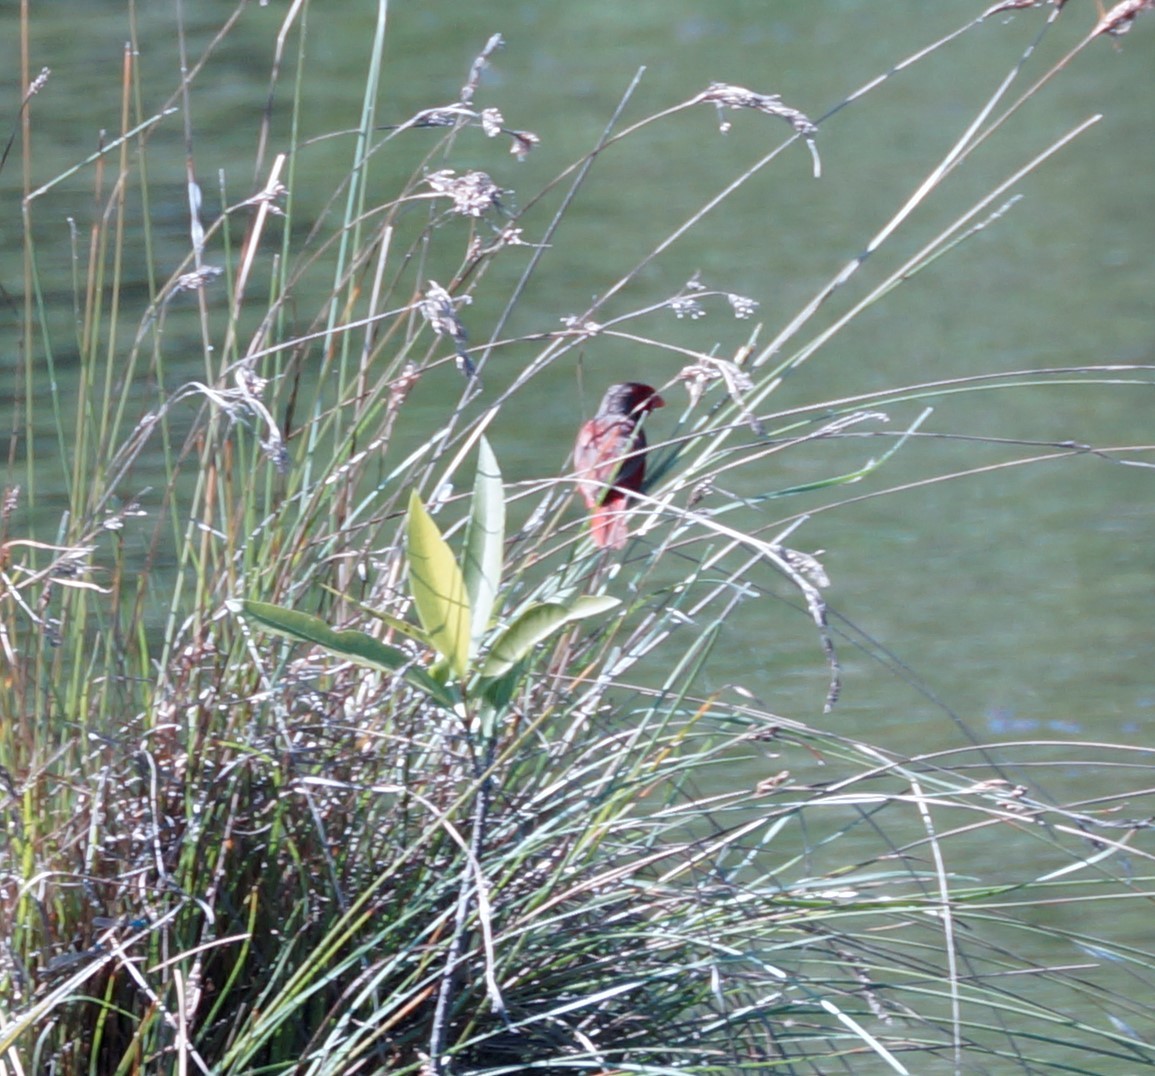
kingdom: Animalia
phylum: Chordata
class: Aves
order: Passeriformes
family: Estrildidae
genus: Neochmia
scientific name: Neochmia phaeton
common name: Crimson finch
